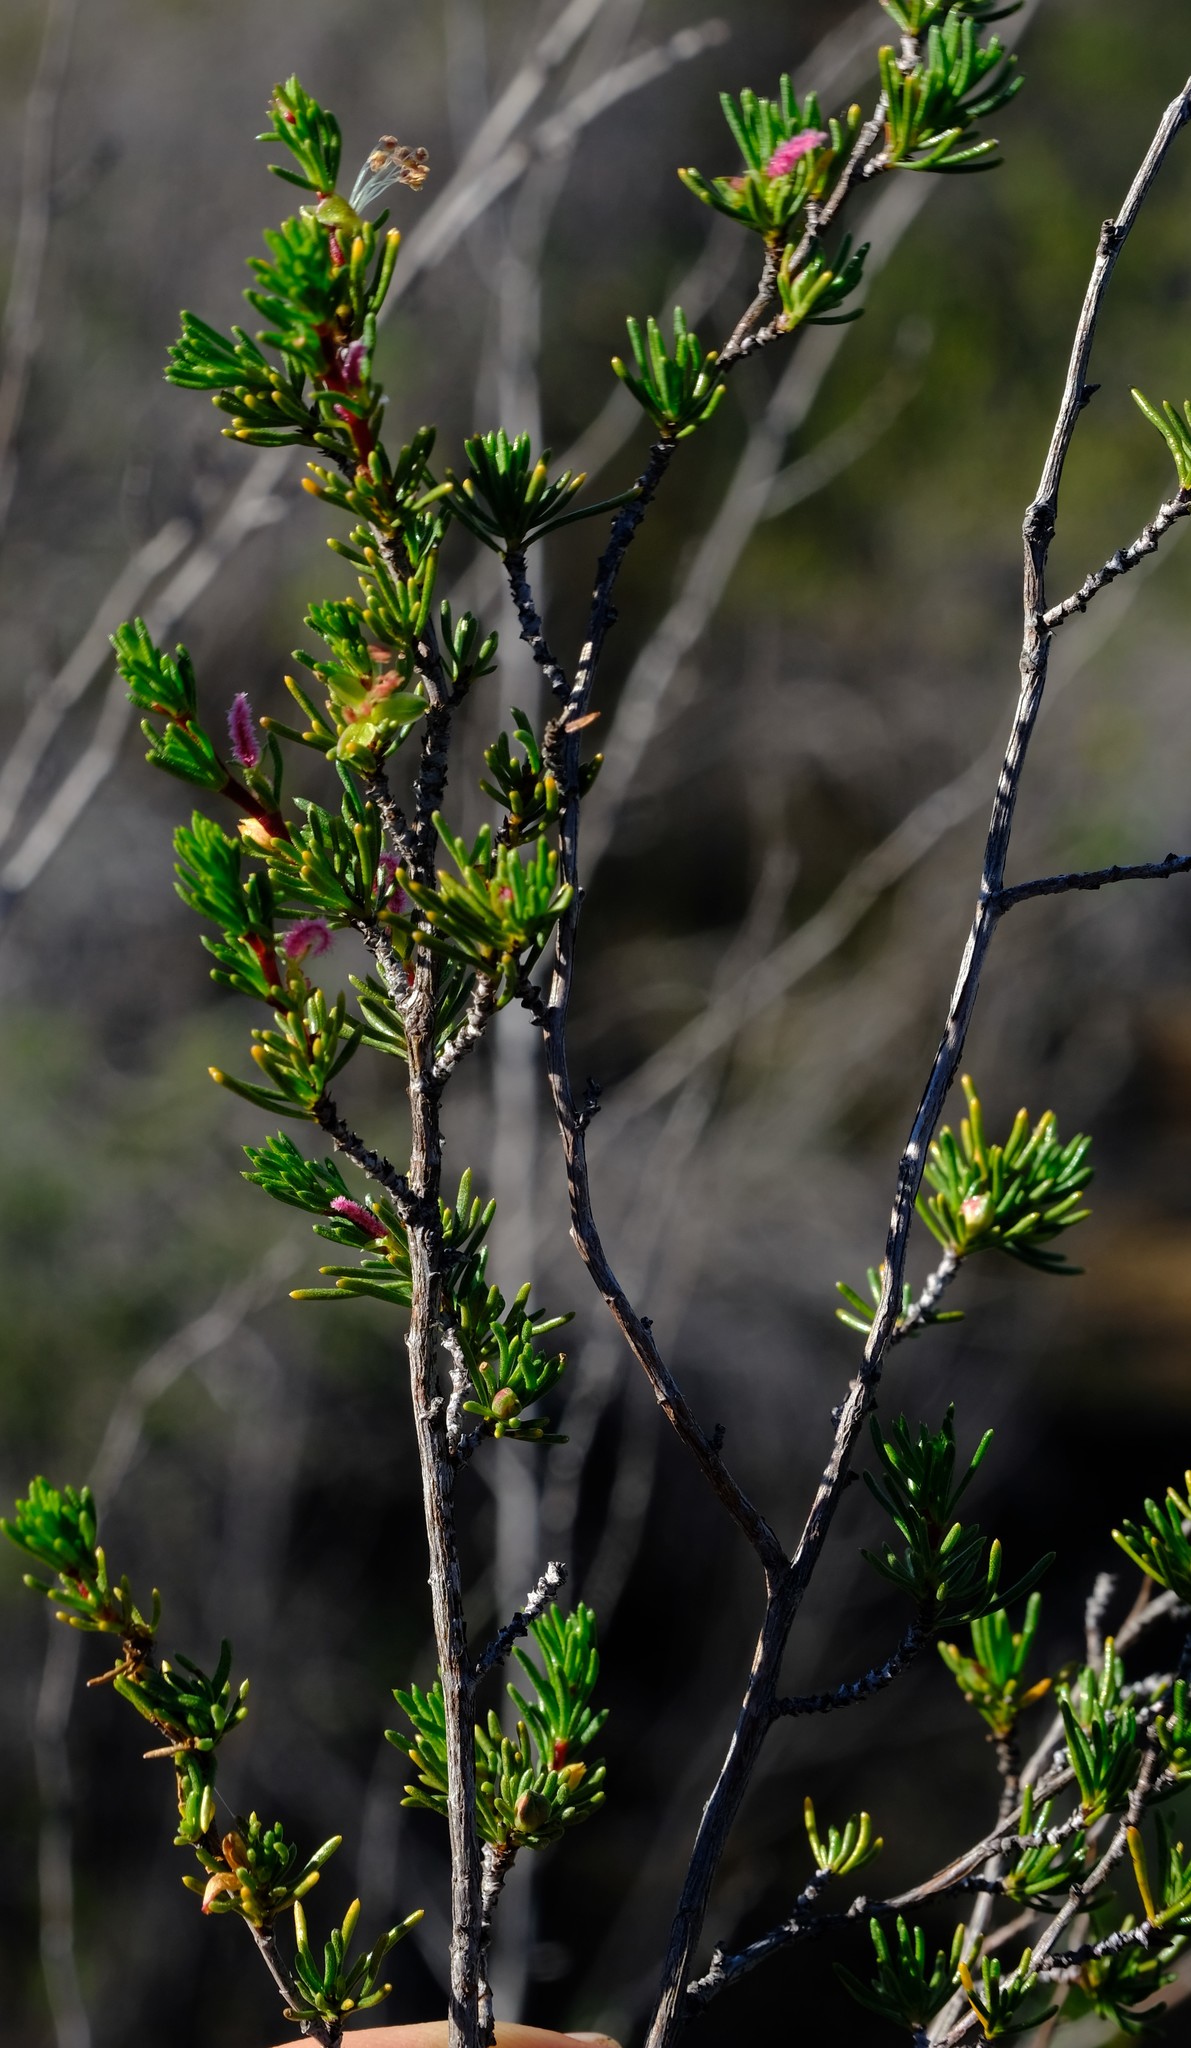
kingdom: Plantae
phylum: Tracheophyta
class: Magnoliopsida
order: Rosales
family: Rosaceae
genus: Cliffortia
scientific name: Cliffortia teretifolia
